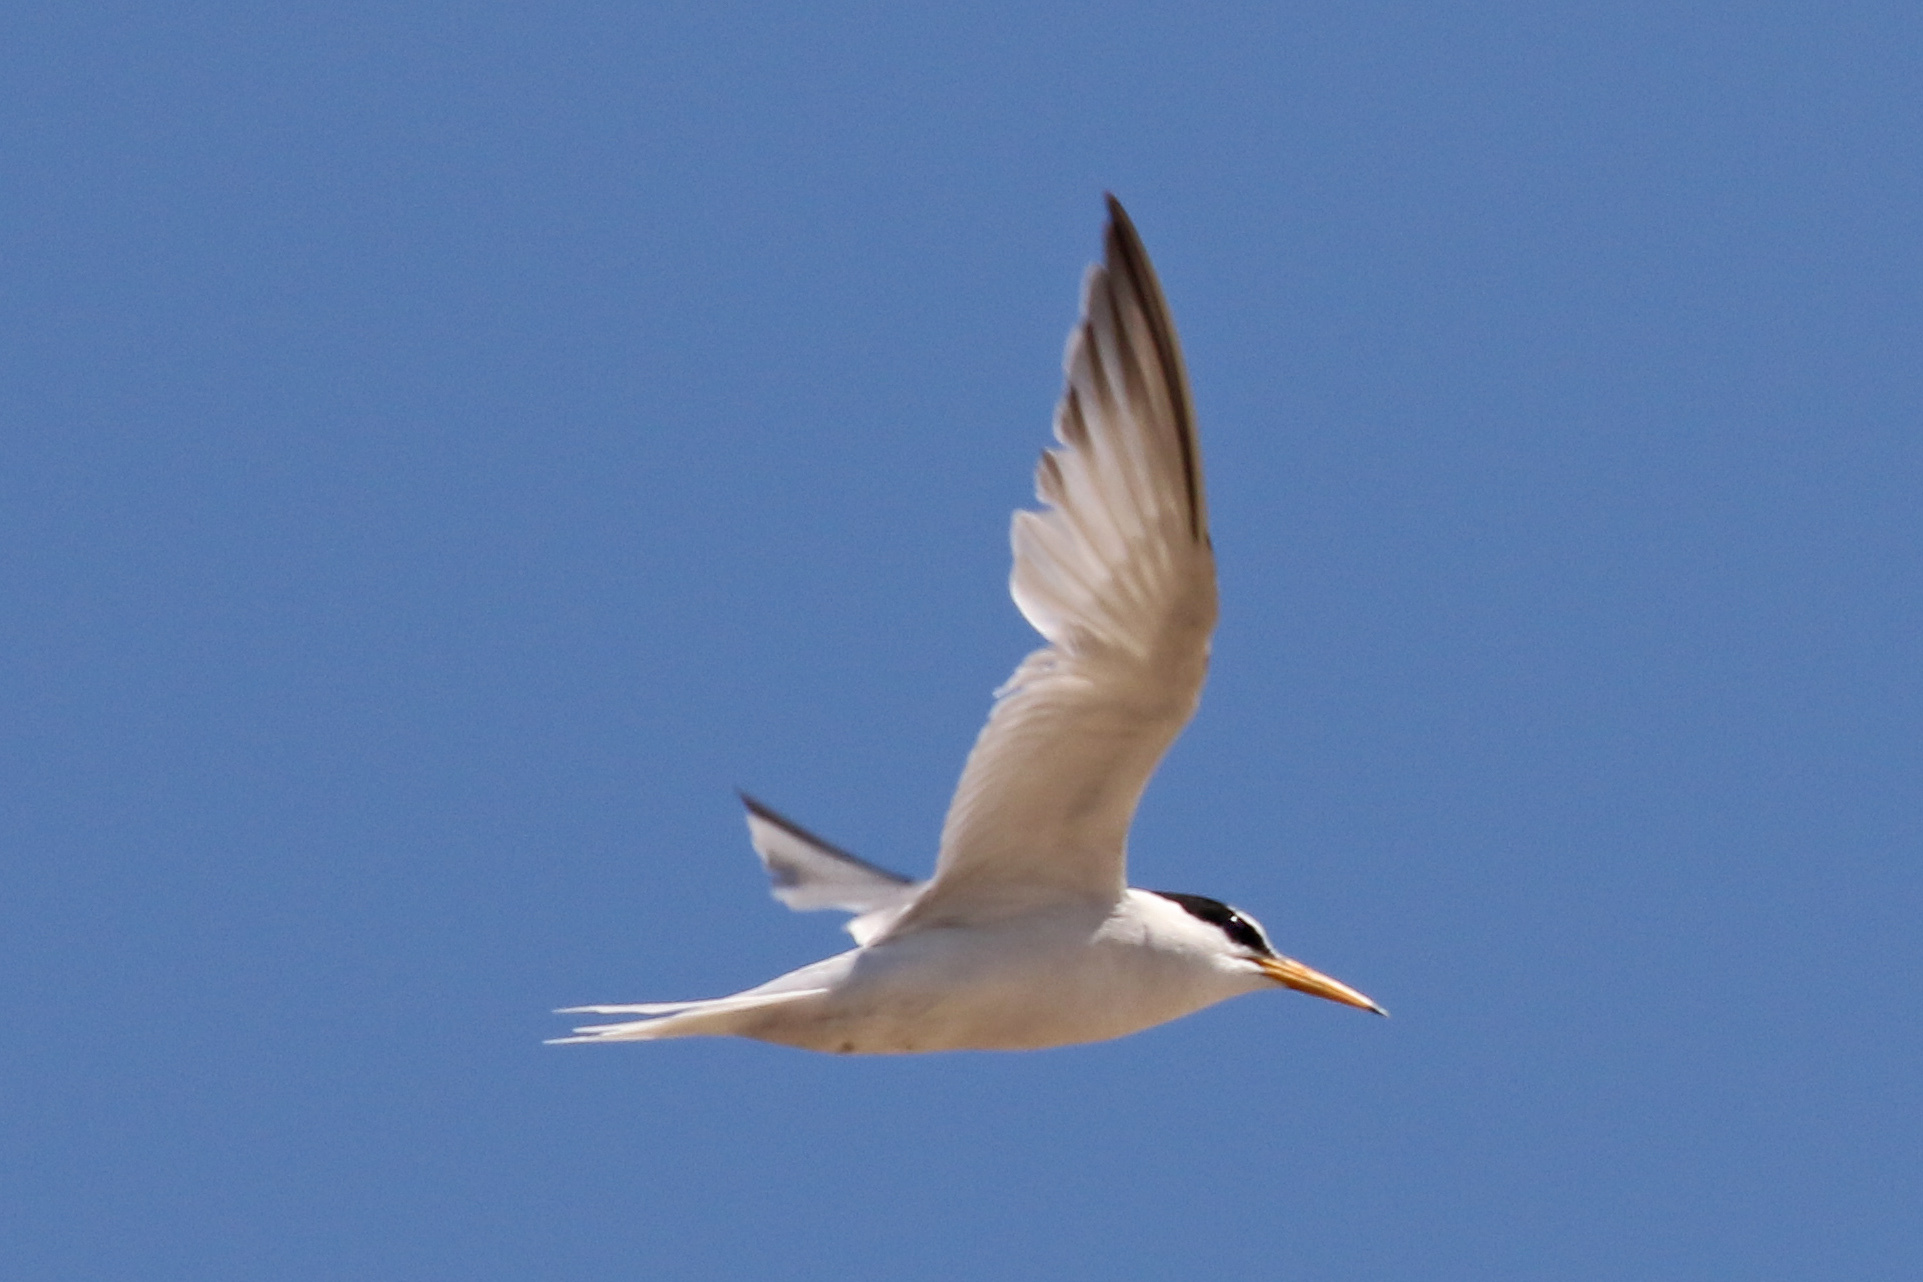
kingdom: Animalia
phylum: Chordata
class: Aves
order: Charadriiformes
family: Laridae
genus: Sternula
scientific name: Sternula albifrons
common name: Little tern
